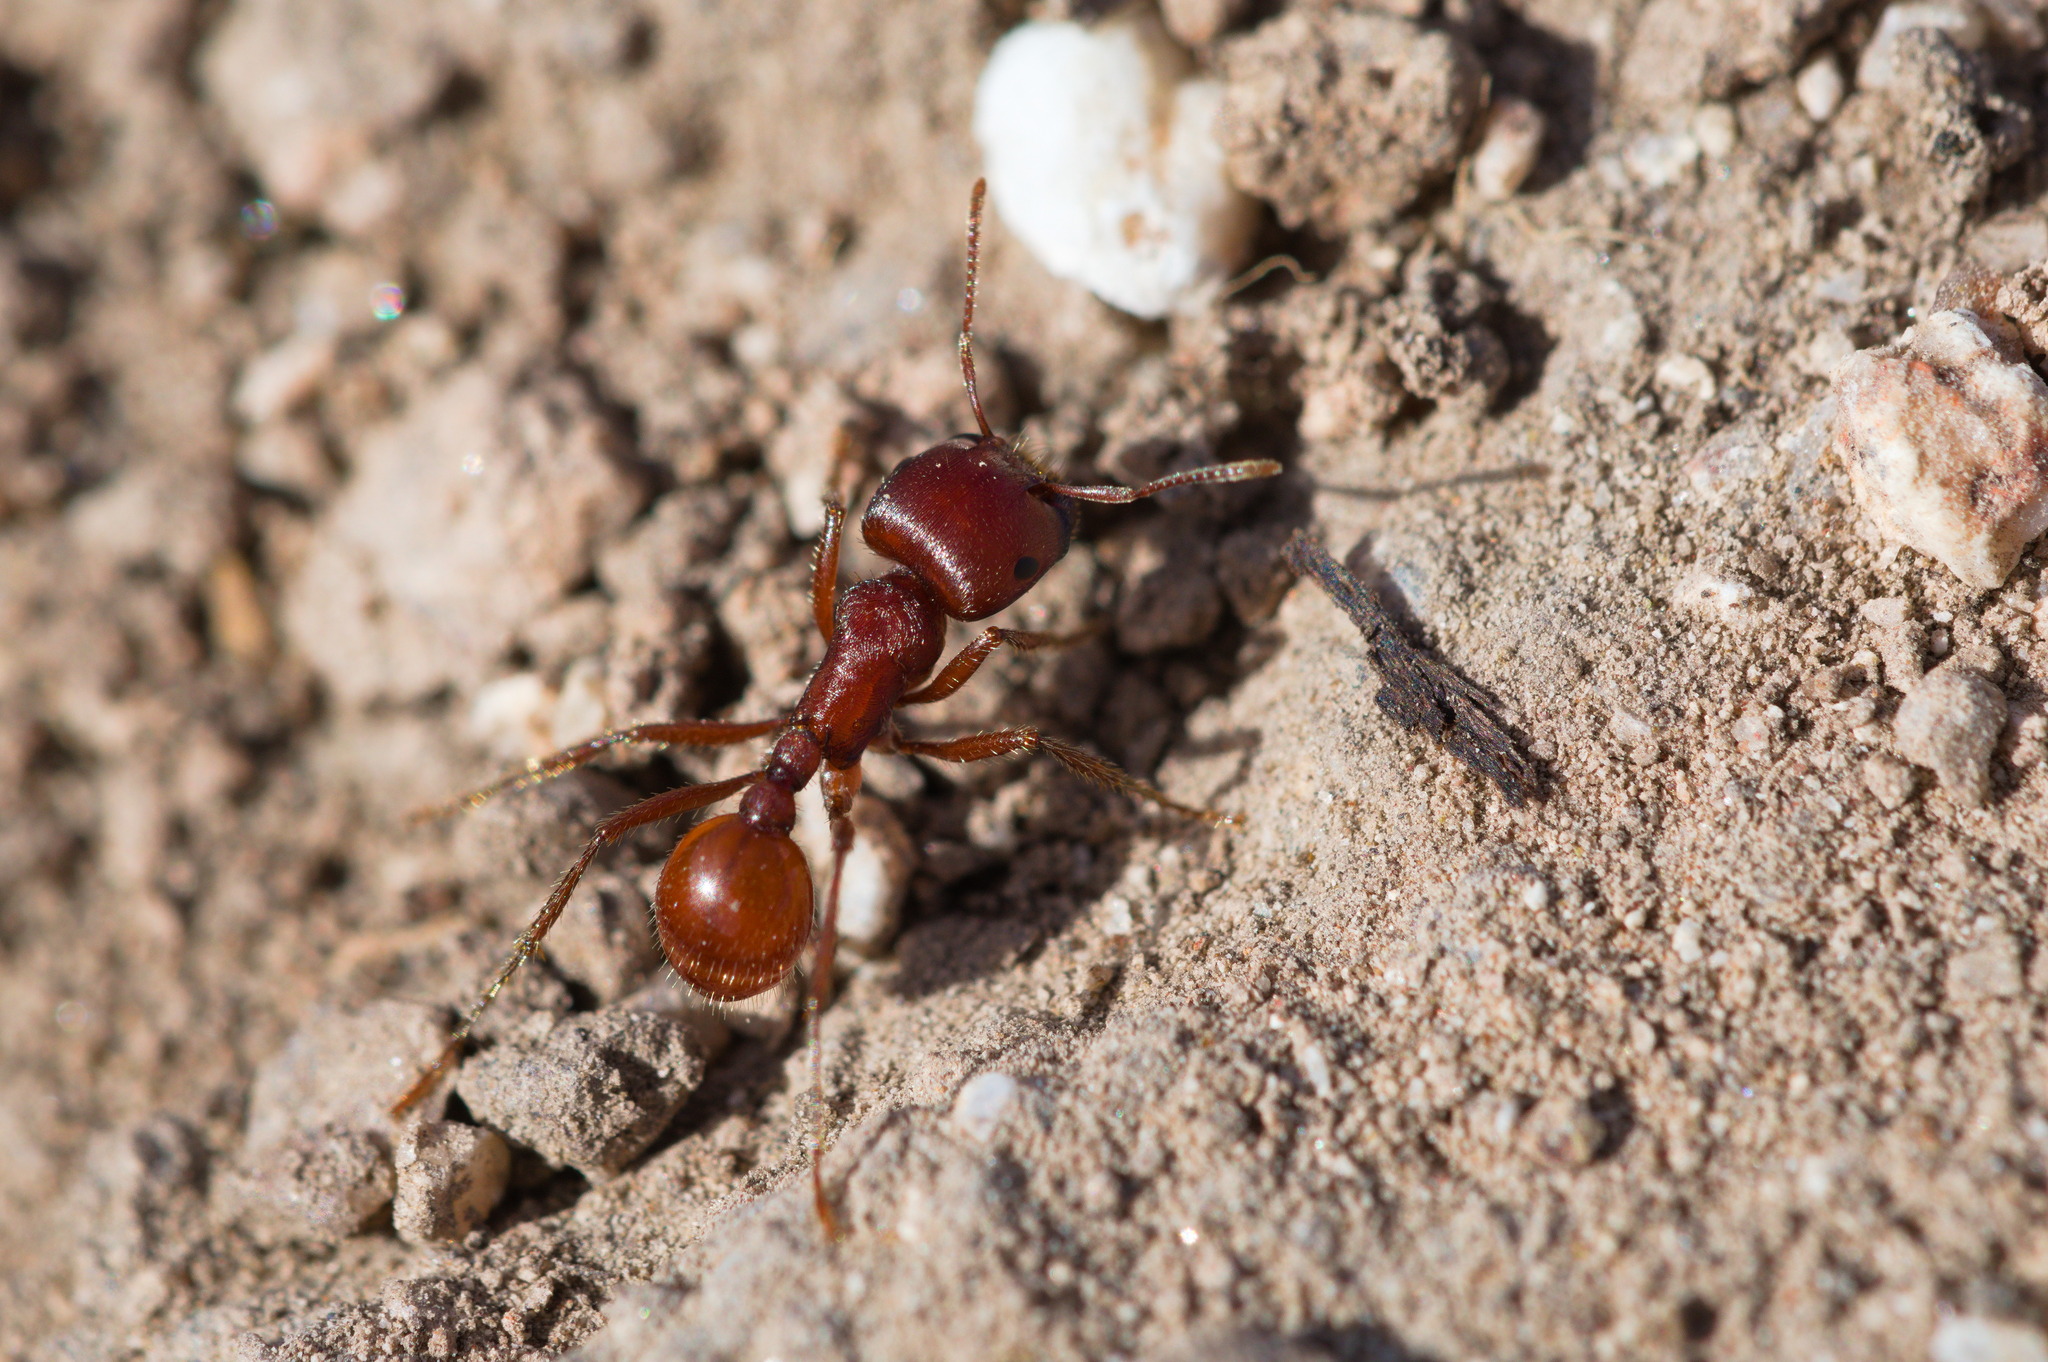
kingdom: Animalia
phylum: Arthropoda
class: Insecta
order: Hymenoptera
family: Formicidae
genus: Pogonomyrmex
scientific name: Pogonomyrmex barbatus
